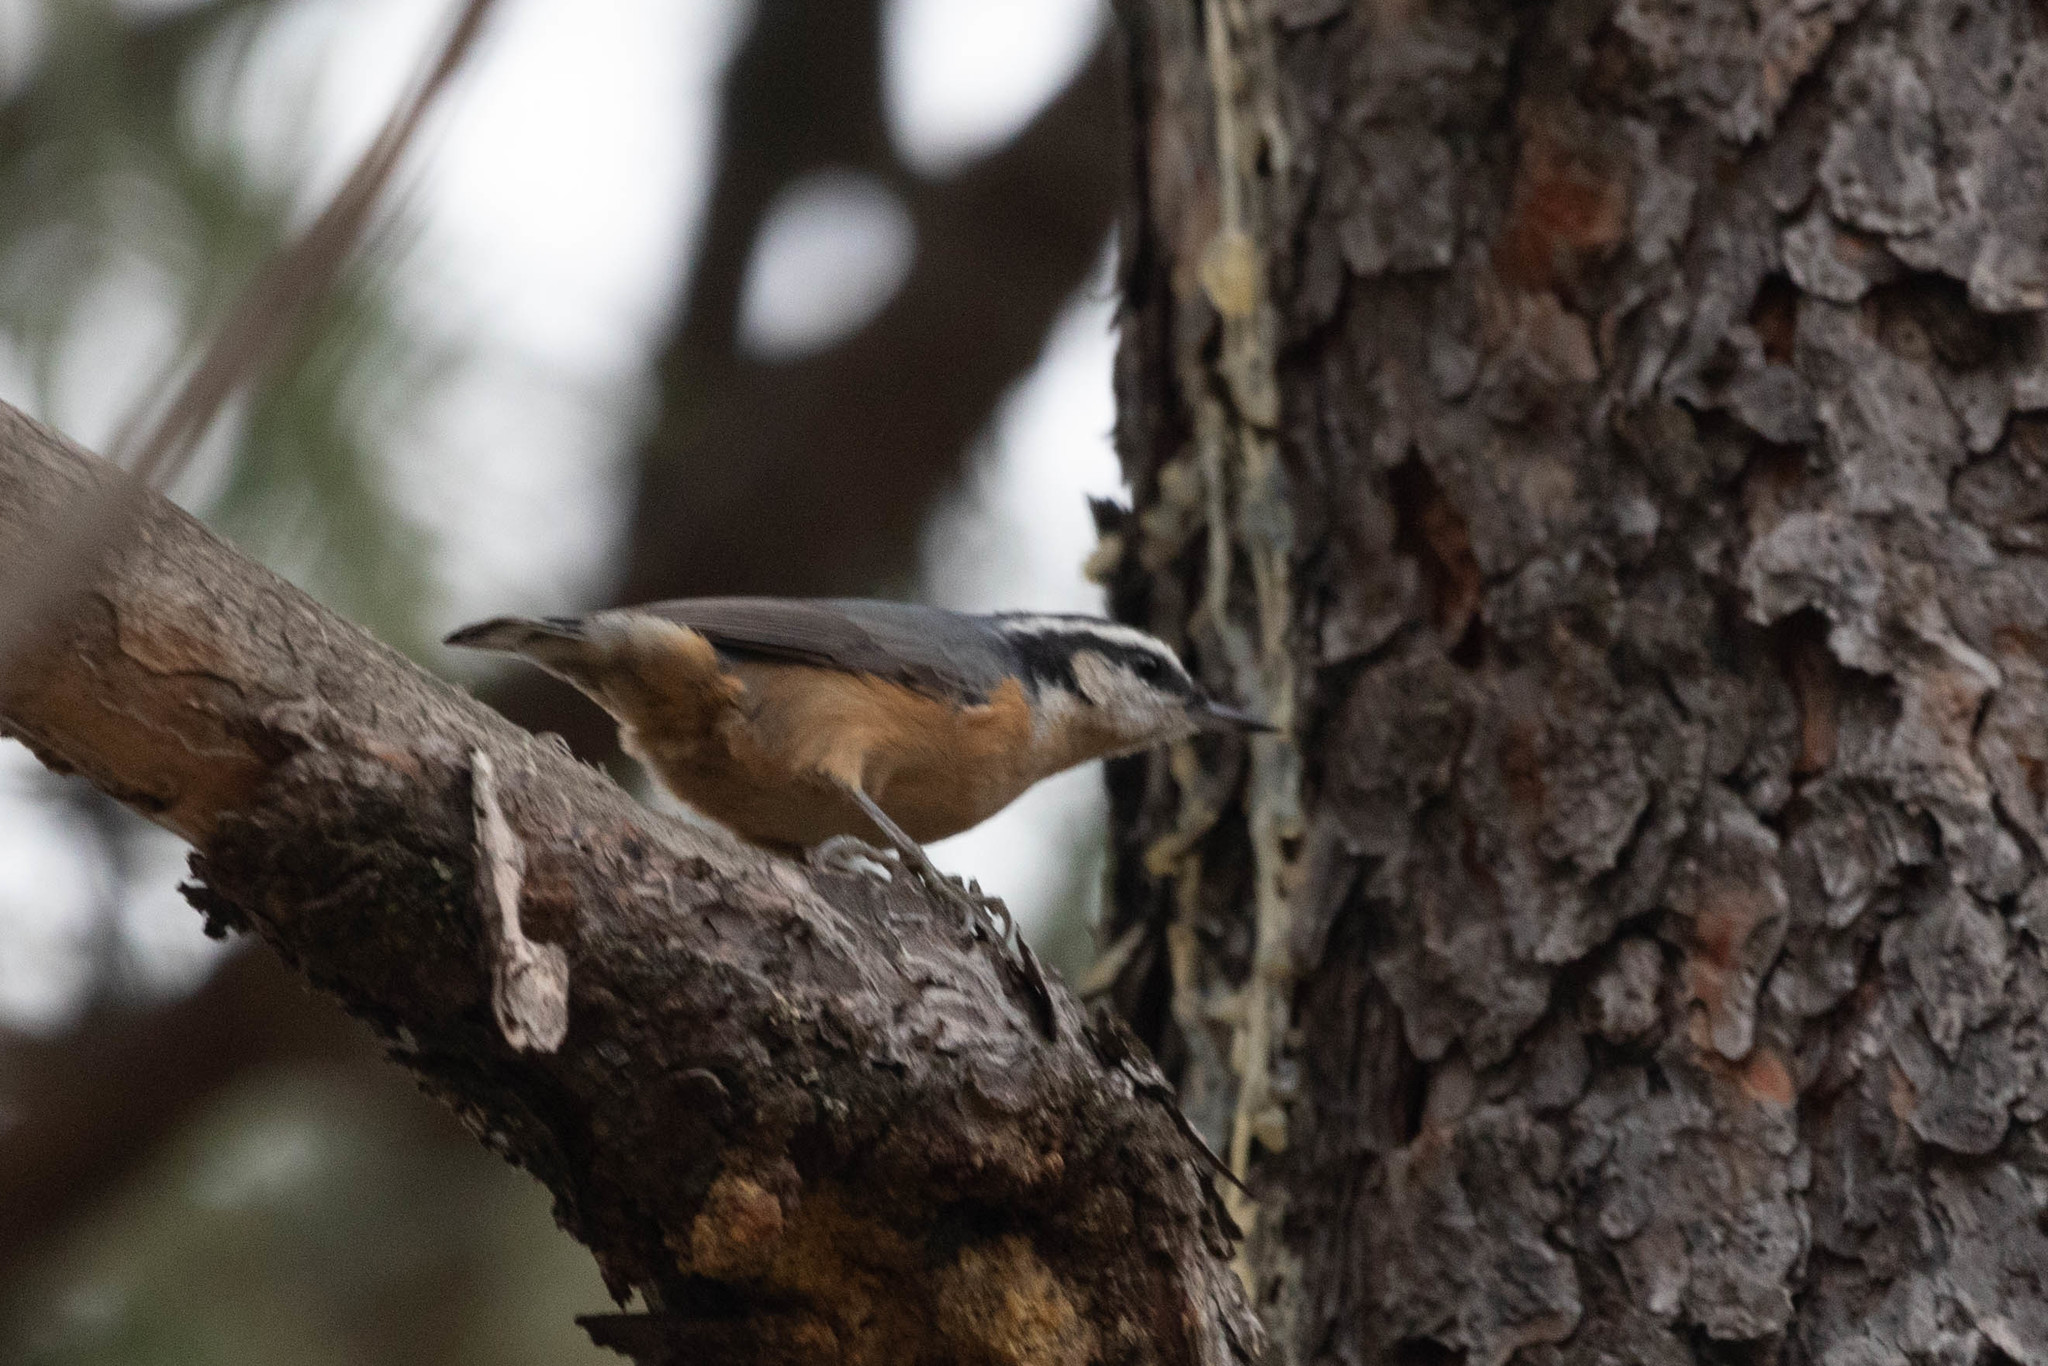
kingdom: Animalia
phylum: Chordata
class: Aves
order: Passeriformes
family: Sittidae
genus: Sitta
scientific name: Sitta canadensis
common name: Red-breasted nuthatch
